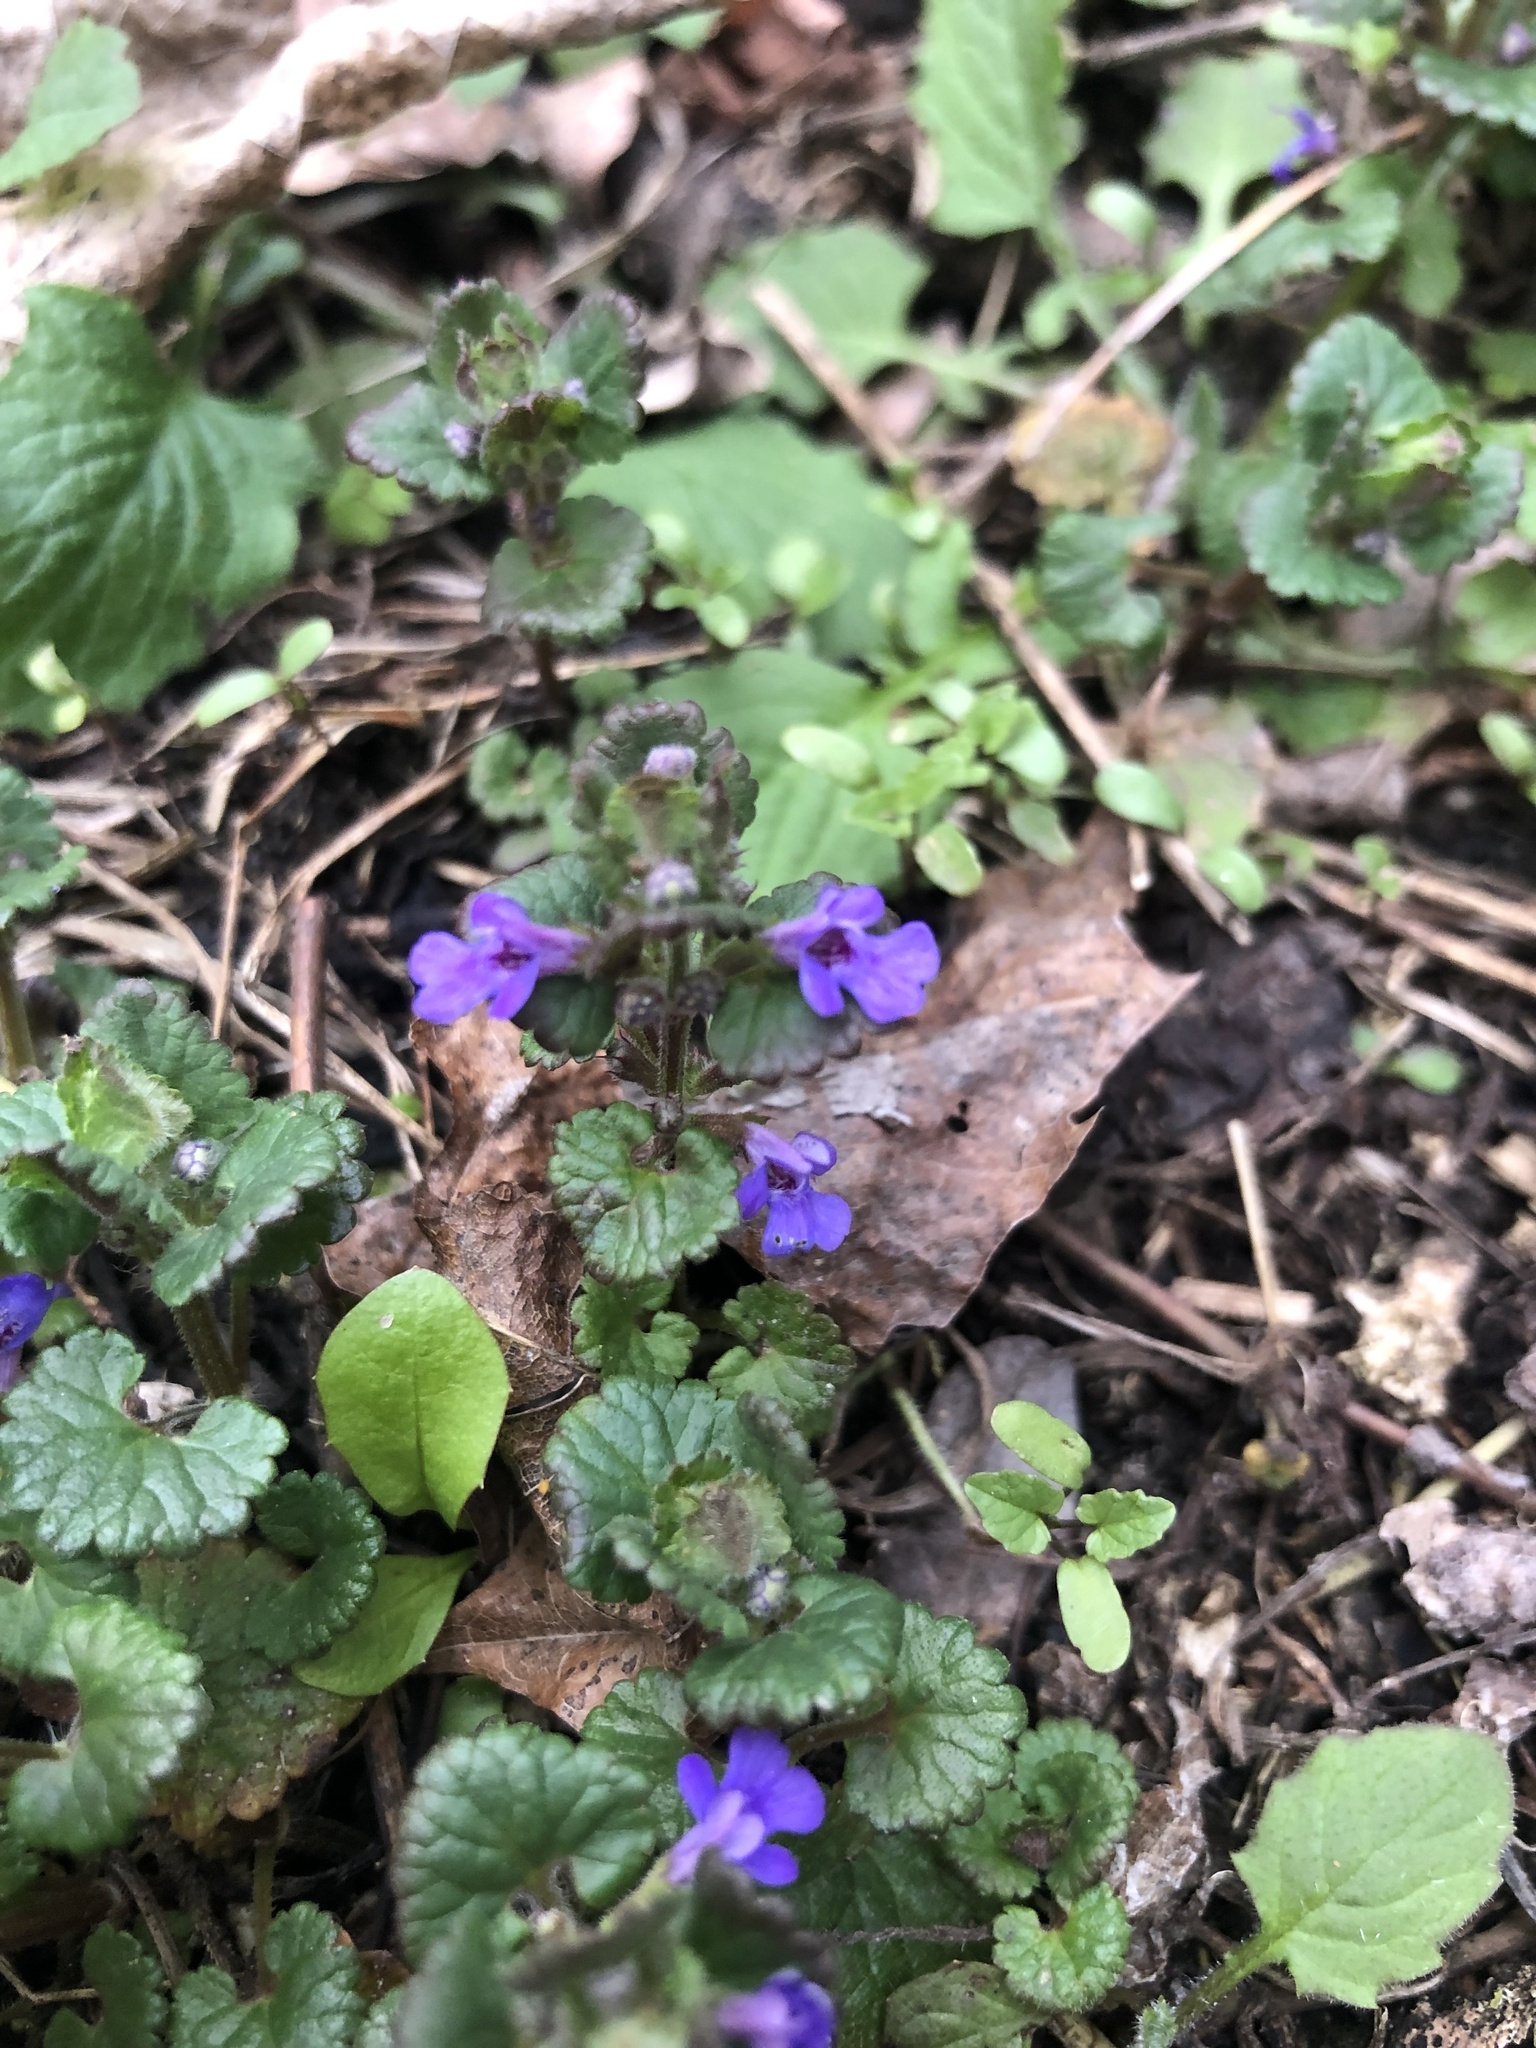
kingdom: Plantae
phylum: Tracheophyta
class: Magnoliopsida
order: Lamiales
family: Lamiaceae
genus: Glechoma
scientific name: Glechoma hederacea
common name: Ground ivy
